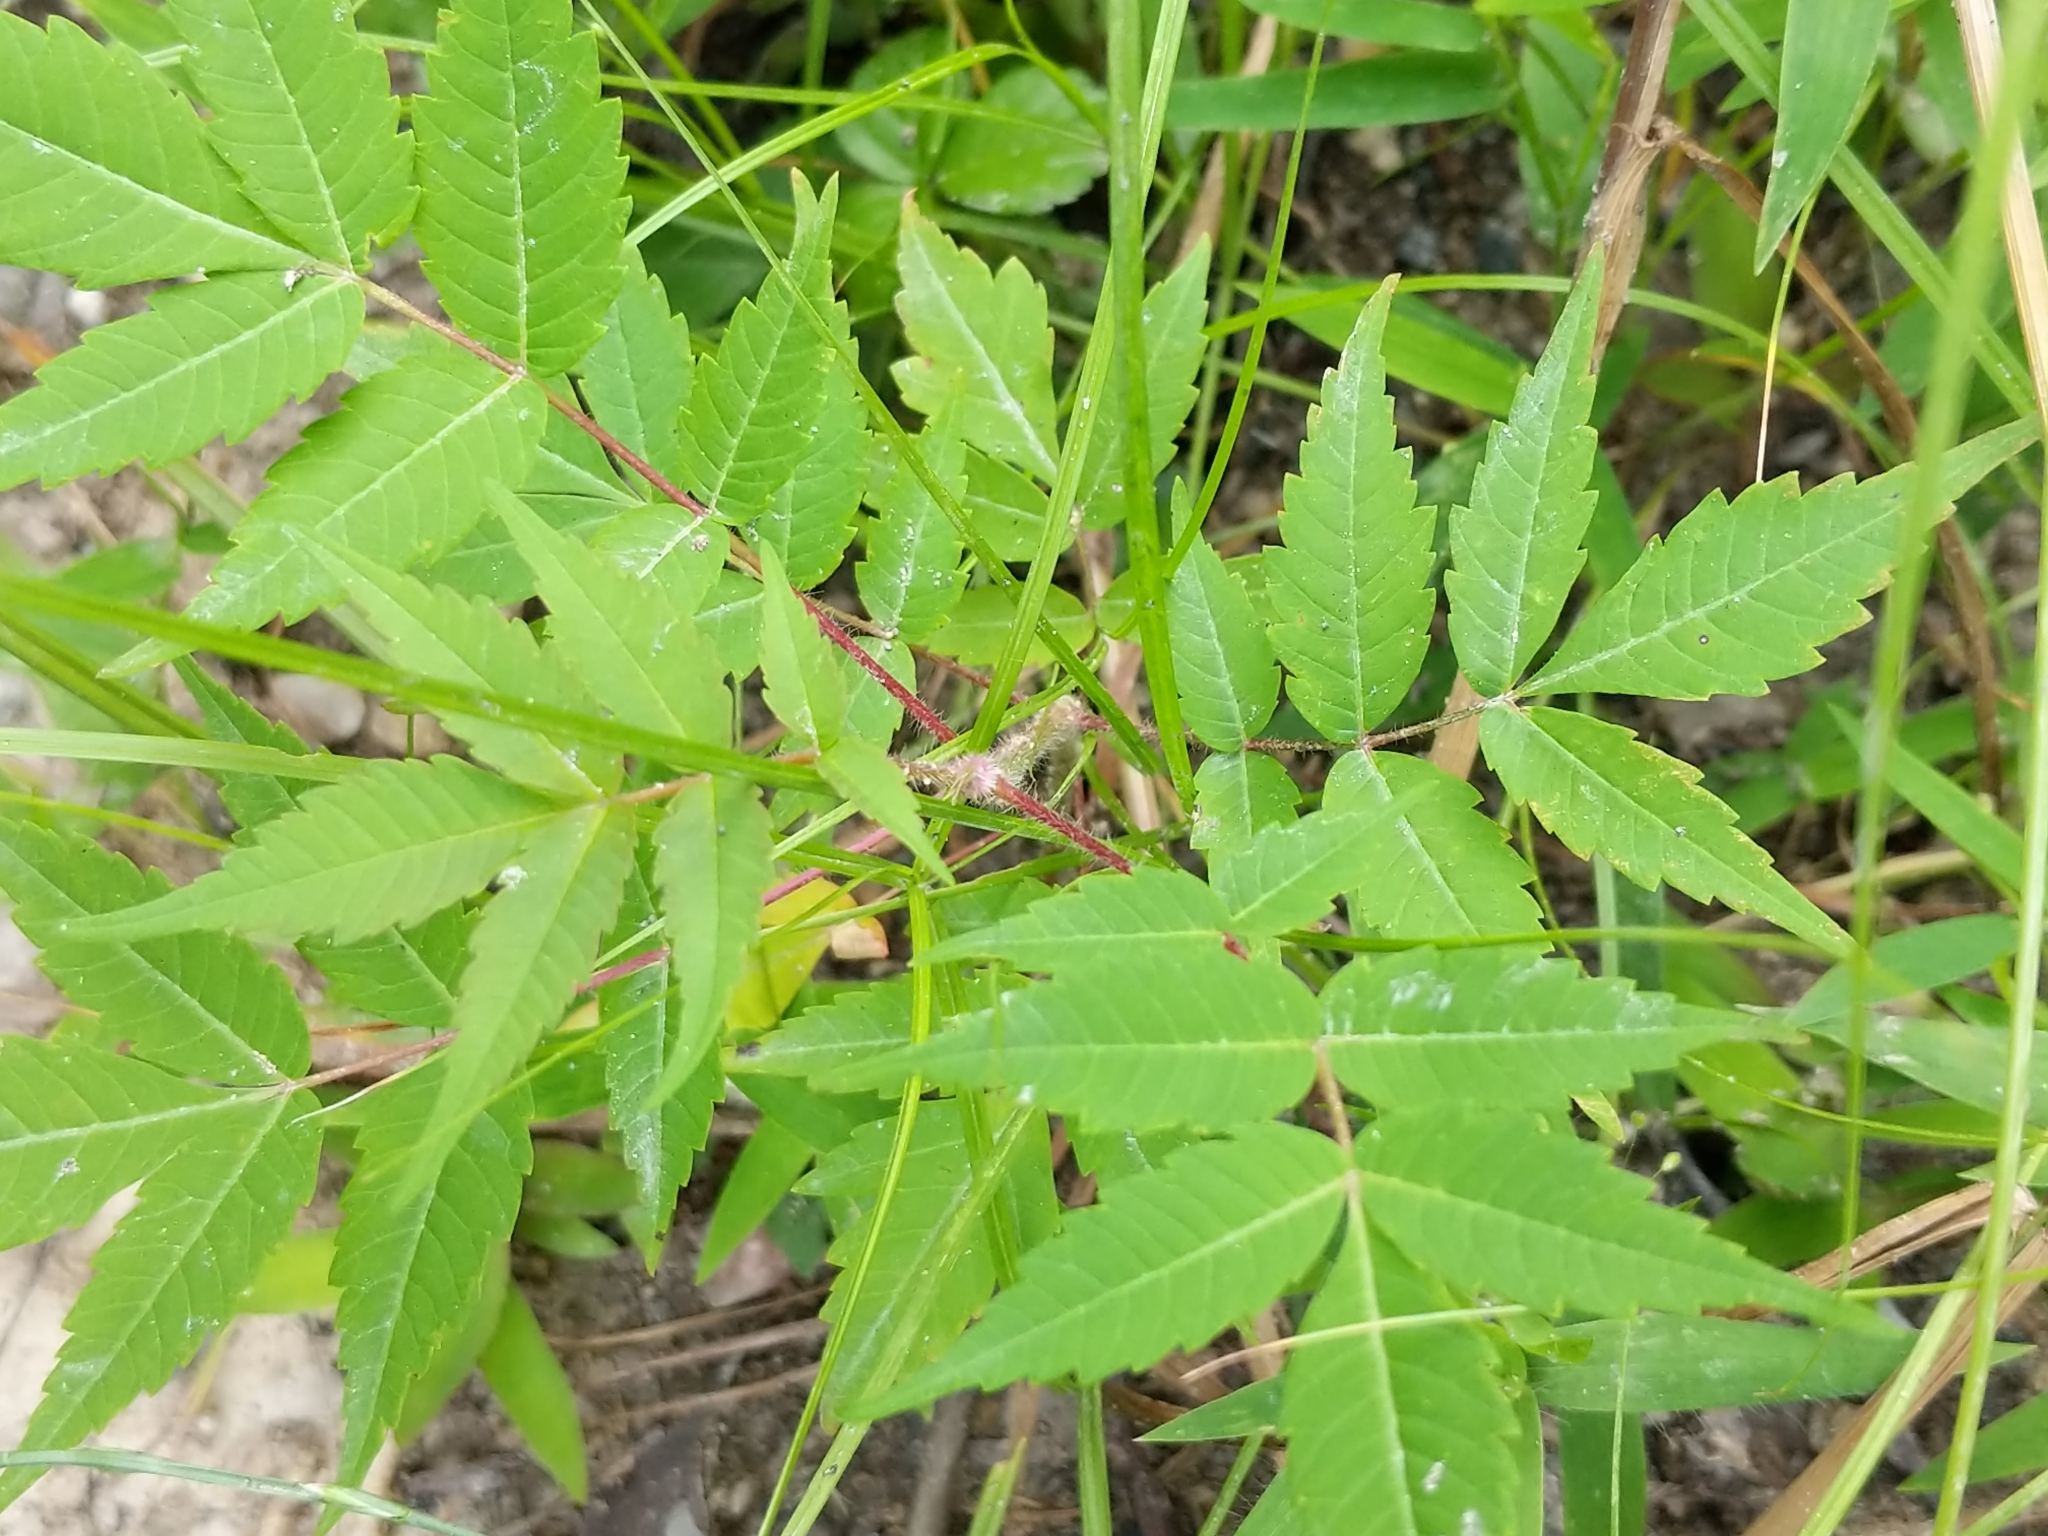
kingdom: Plantae
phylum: Tracheophyta
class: Magnoliopsida
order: Sapindales
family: Anacardiaceae
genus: Rhus
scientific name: Rhus typhina
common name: Staghorn sumac
